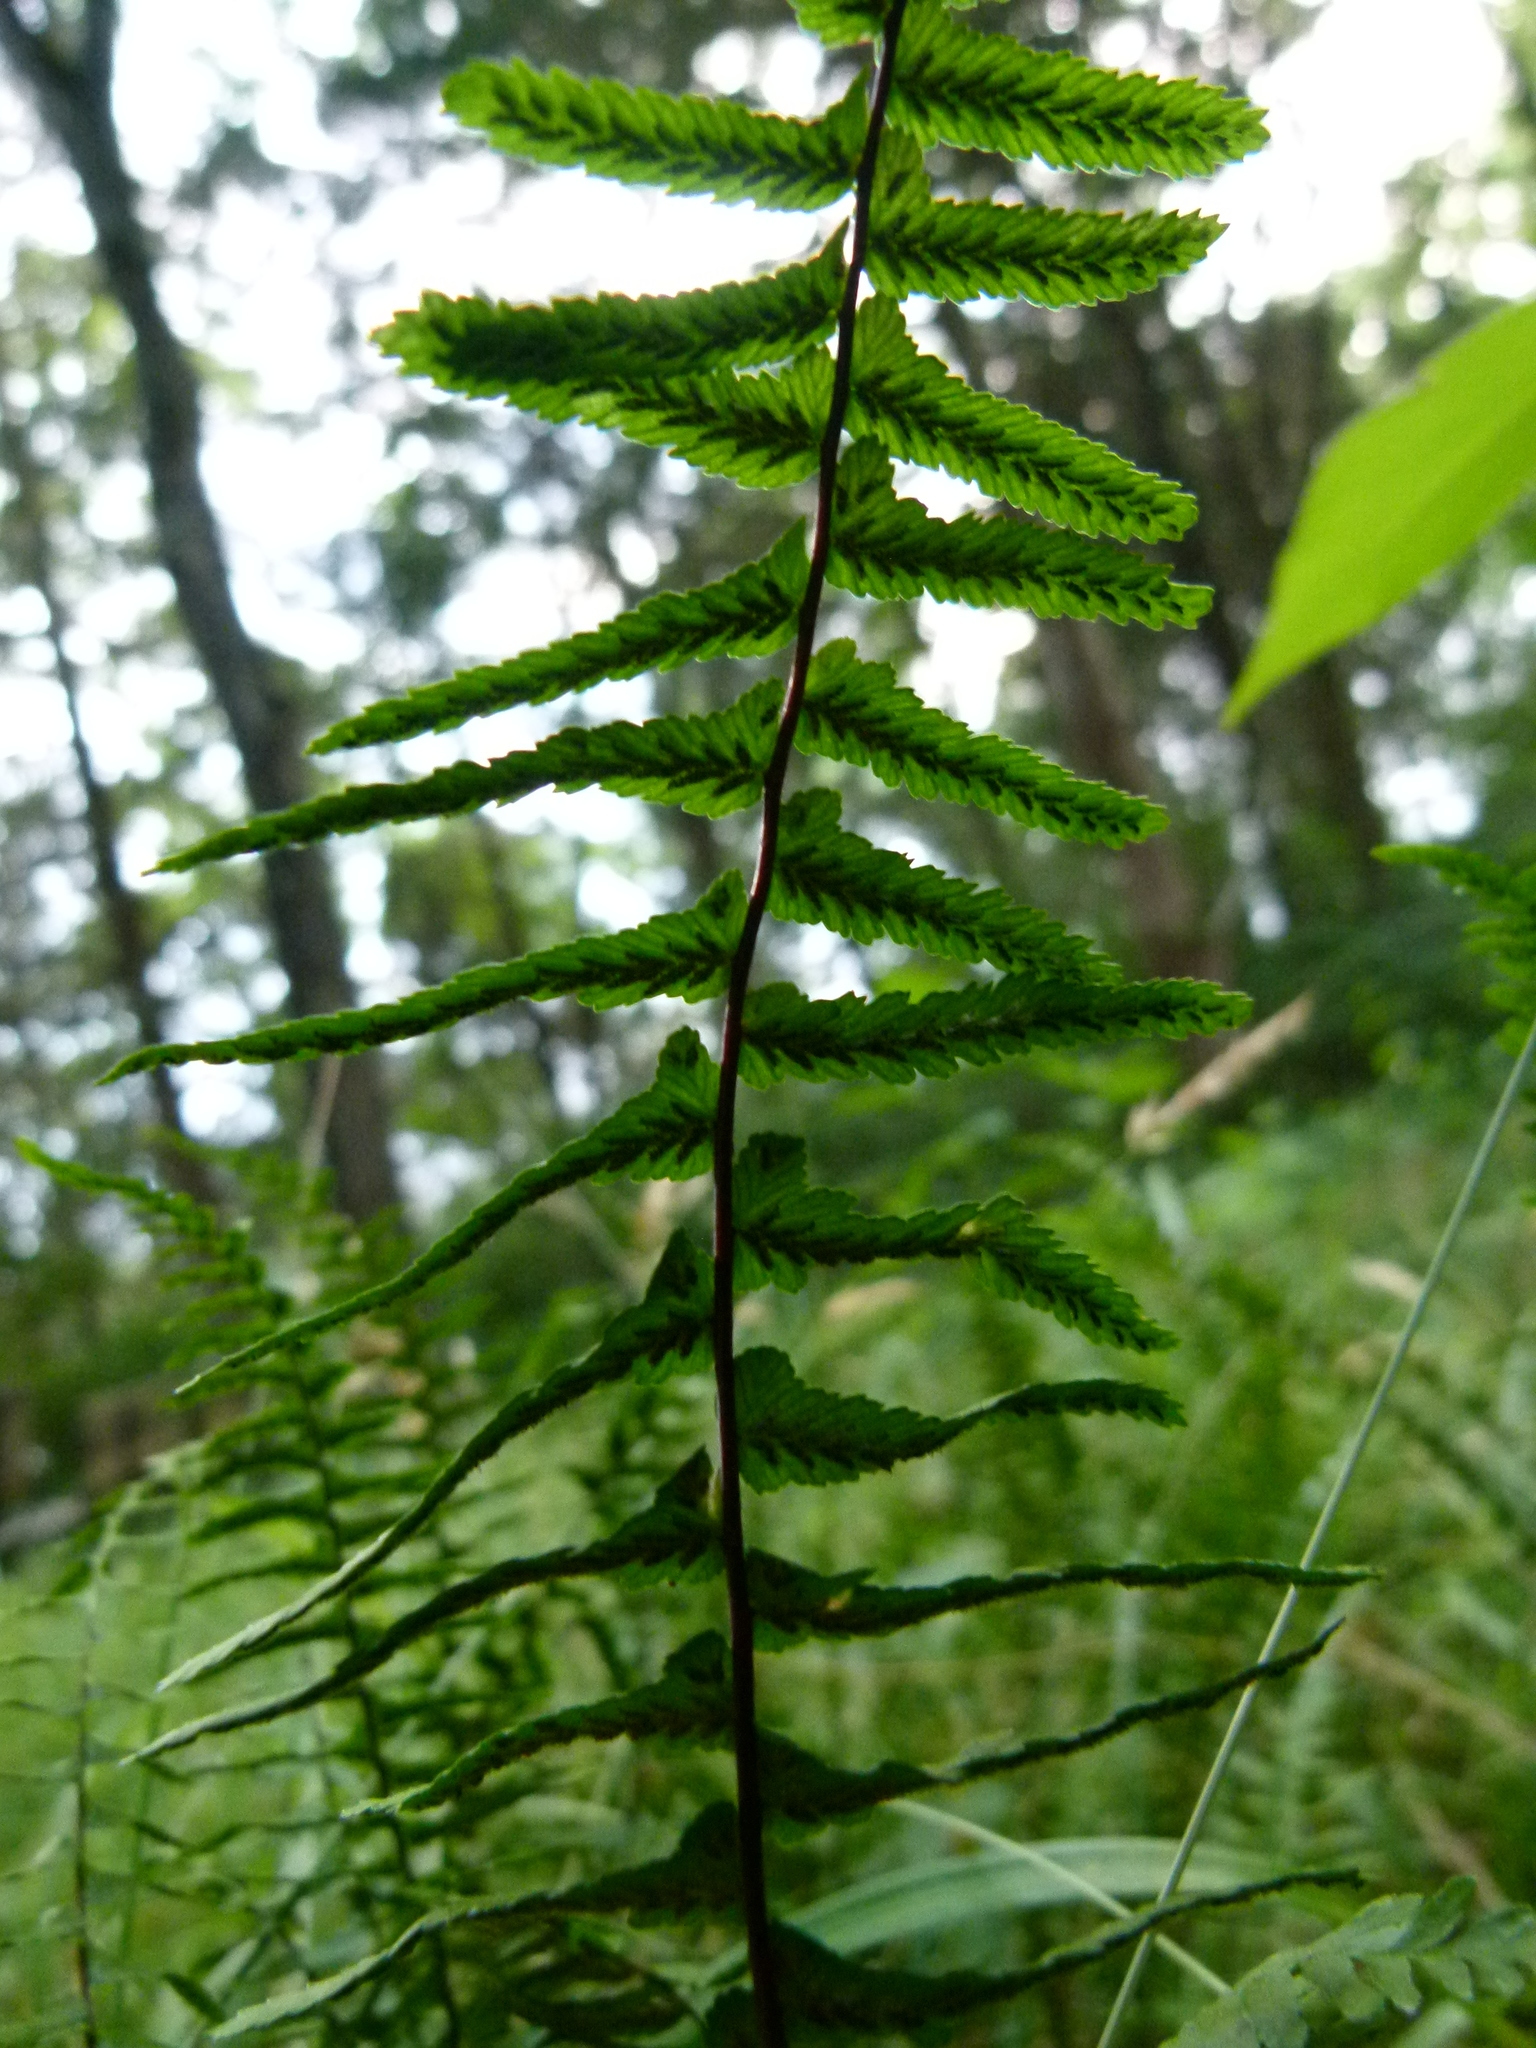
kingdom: Plantae
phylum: Tracheophyta
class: Polypodiopsida
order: Polypodiales
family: Aspleniaceae
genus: Asplenium
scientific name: Asplenium platyneuron
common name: Ebony spleenwort
